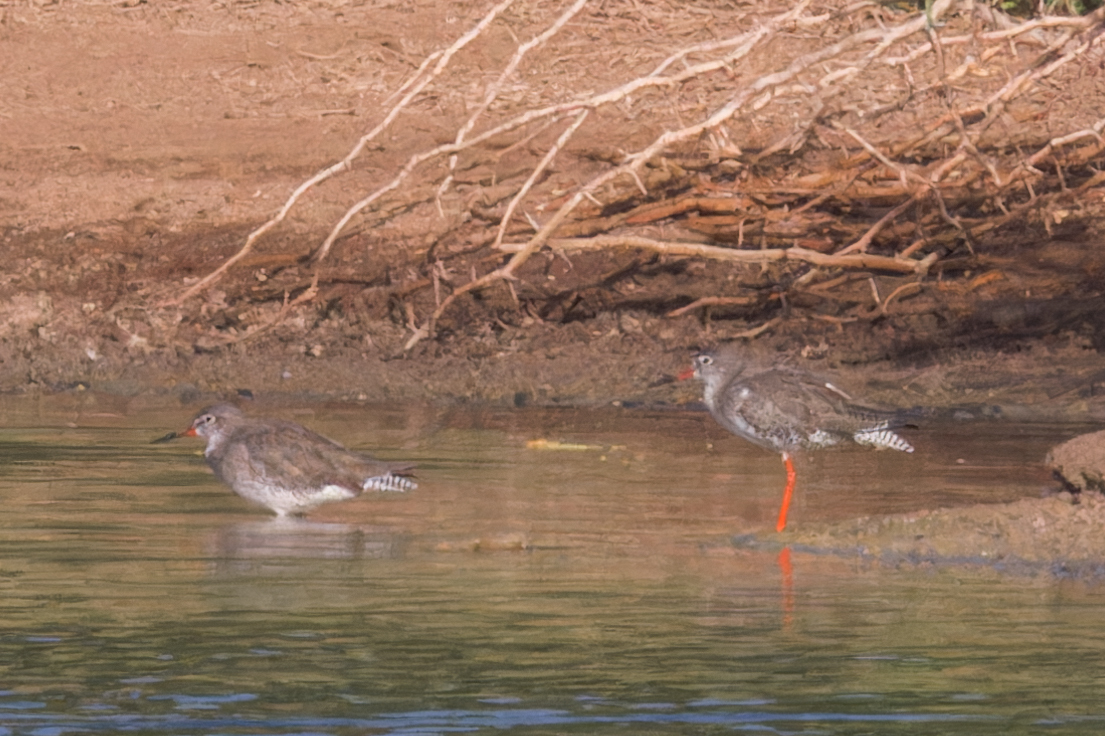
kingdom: Animalia
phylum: Chordata
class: Aves
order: Charadriiformes
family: Scolopacidae
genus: Tringa
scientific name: Tringa totanus
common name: Common redshank
